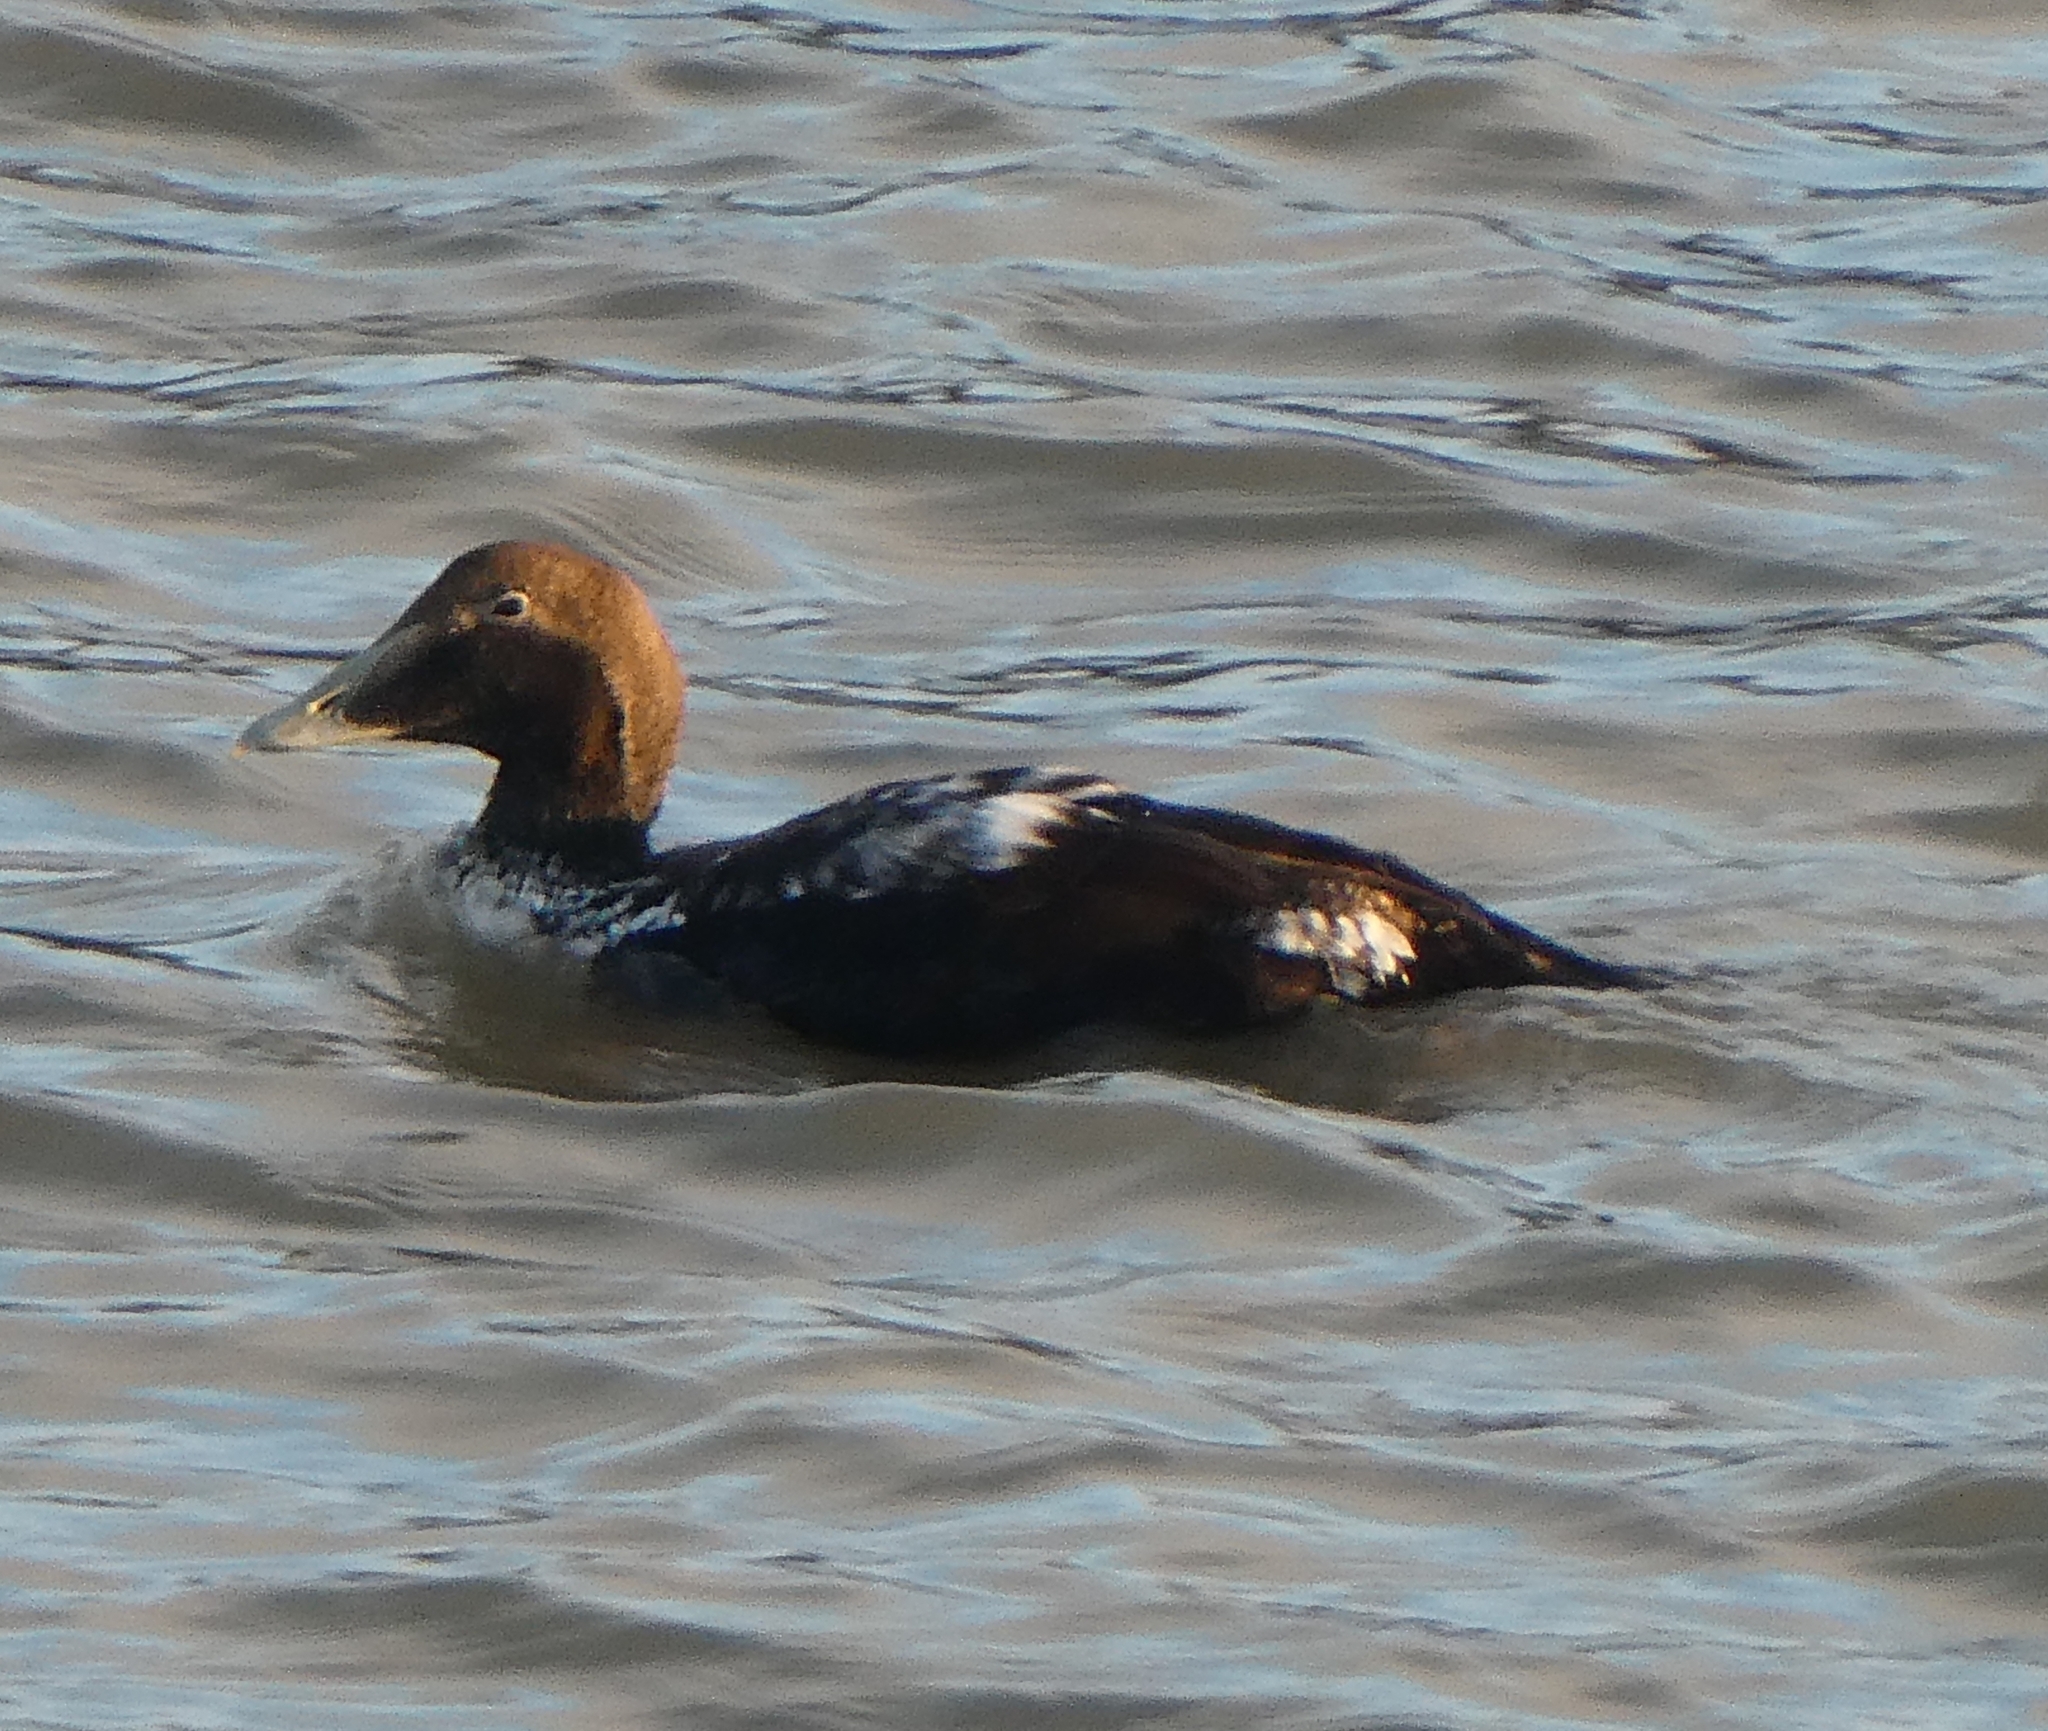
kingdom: Animalia
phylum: Chordata
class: Aves
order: Anseriformes
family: Anatidae
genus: Somateria
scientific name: Somateria mollissima
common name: Common eider
